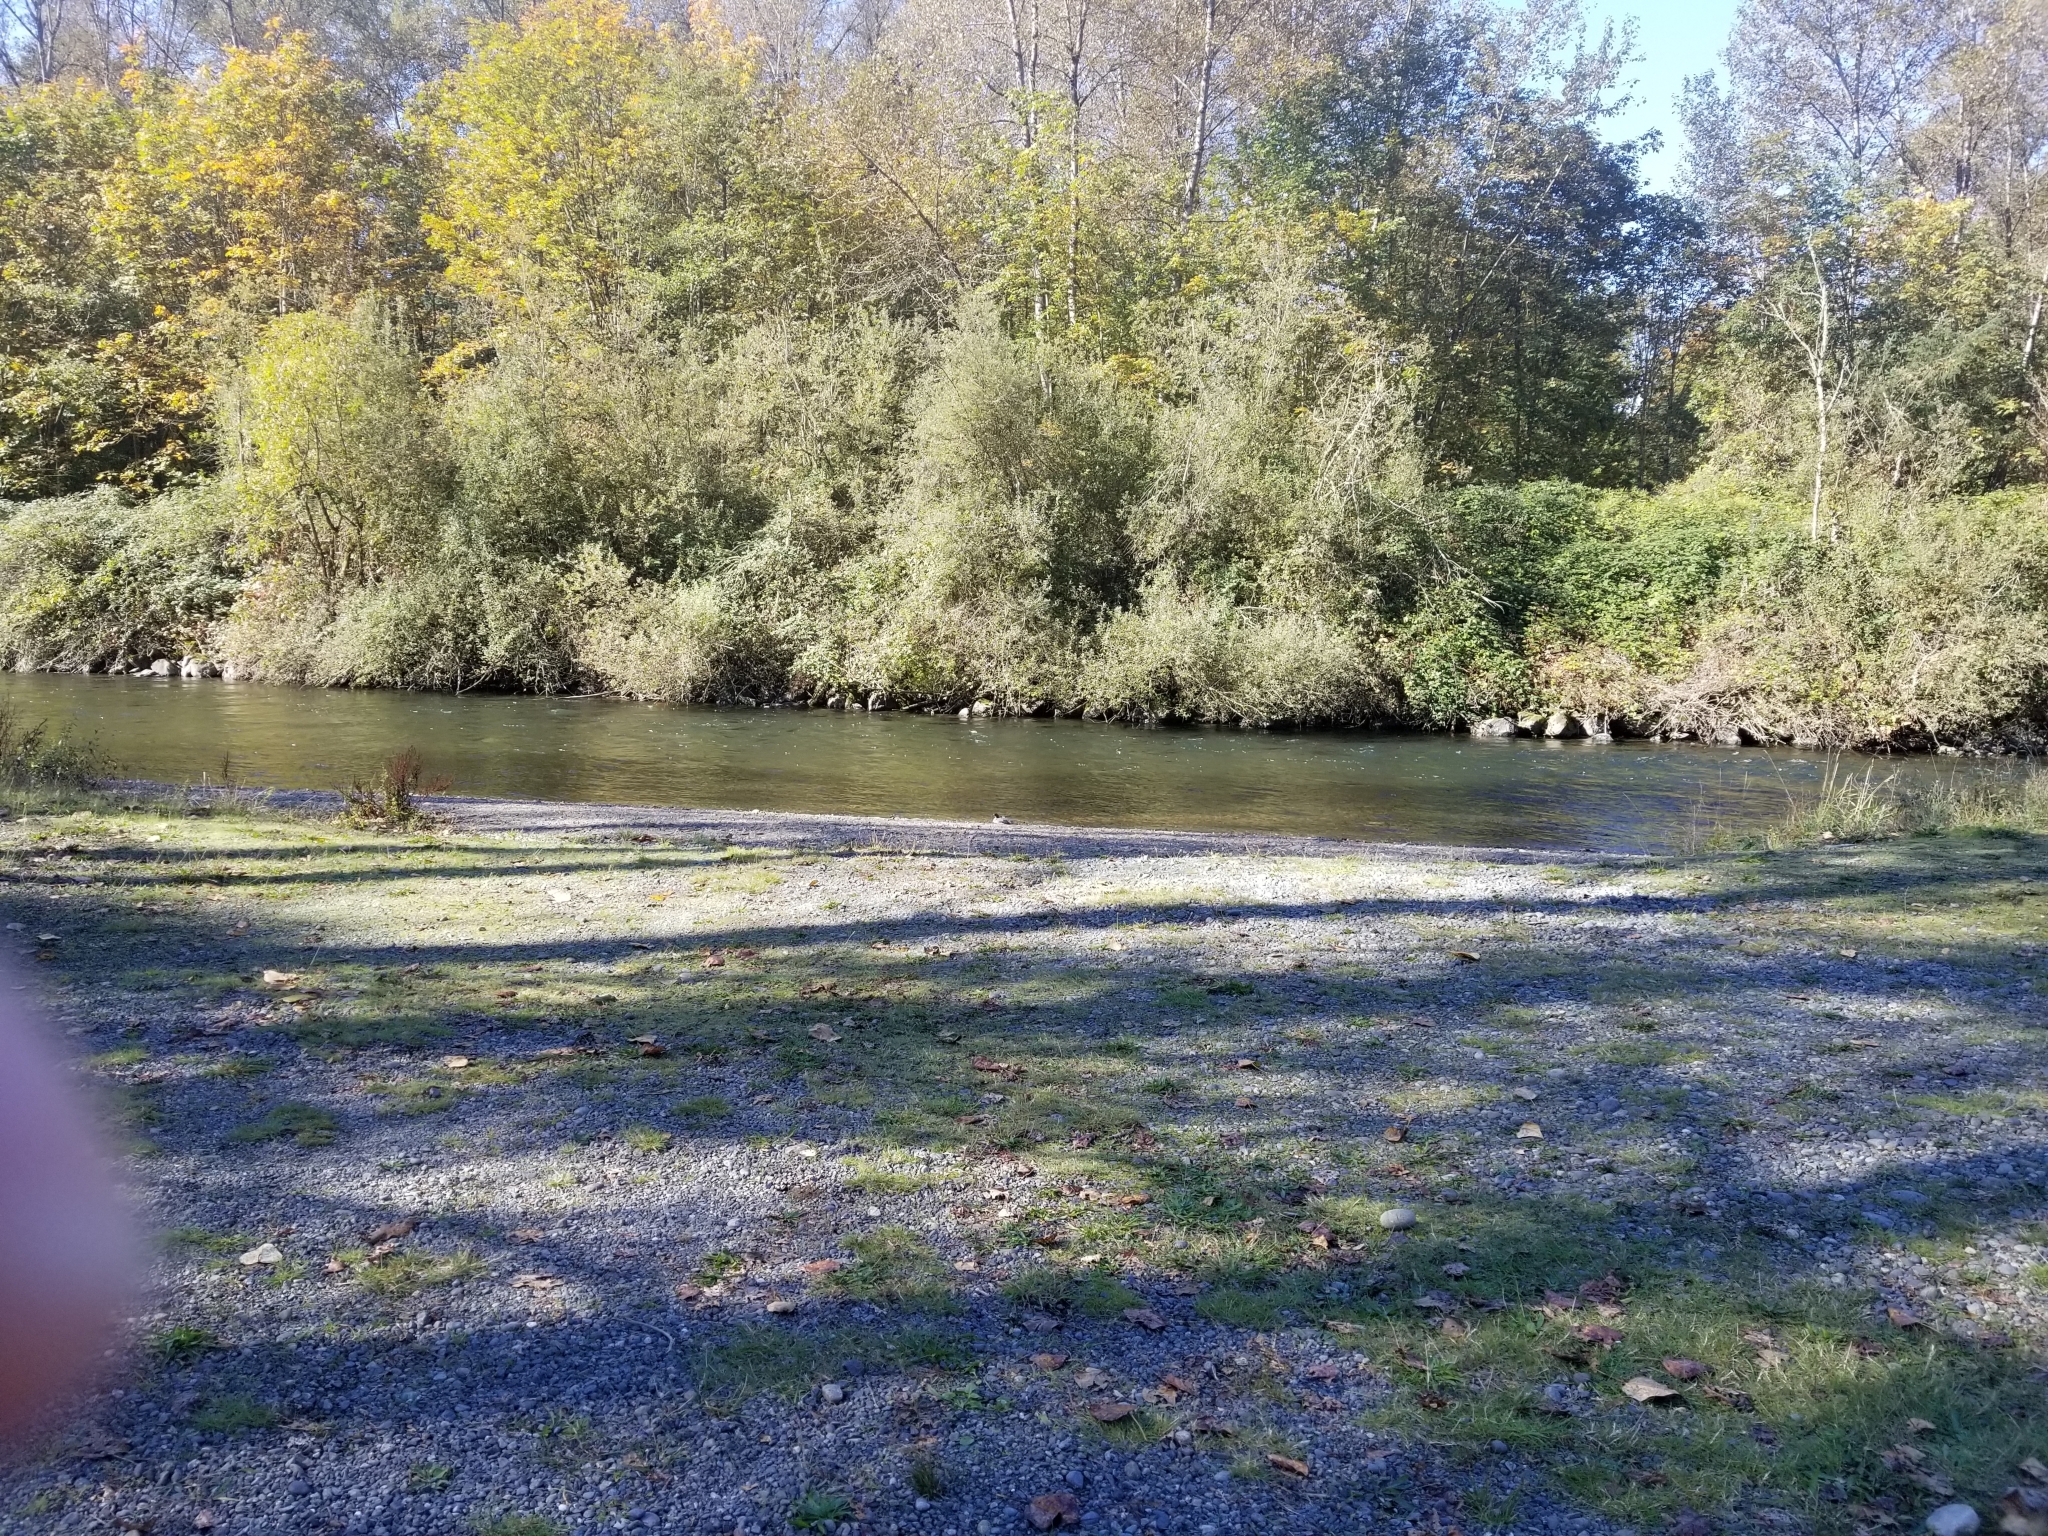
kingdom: Animalia
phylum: Chordata
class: Aves
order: Anseriformes
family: Anatidae
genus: Mergus
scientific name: Mergus merganser
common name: Common merganser
